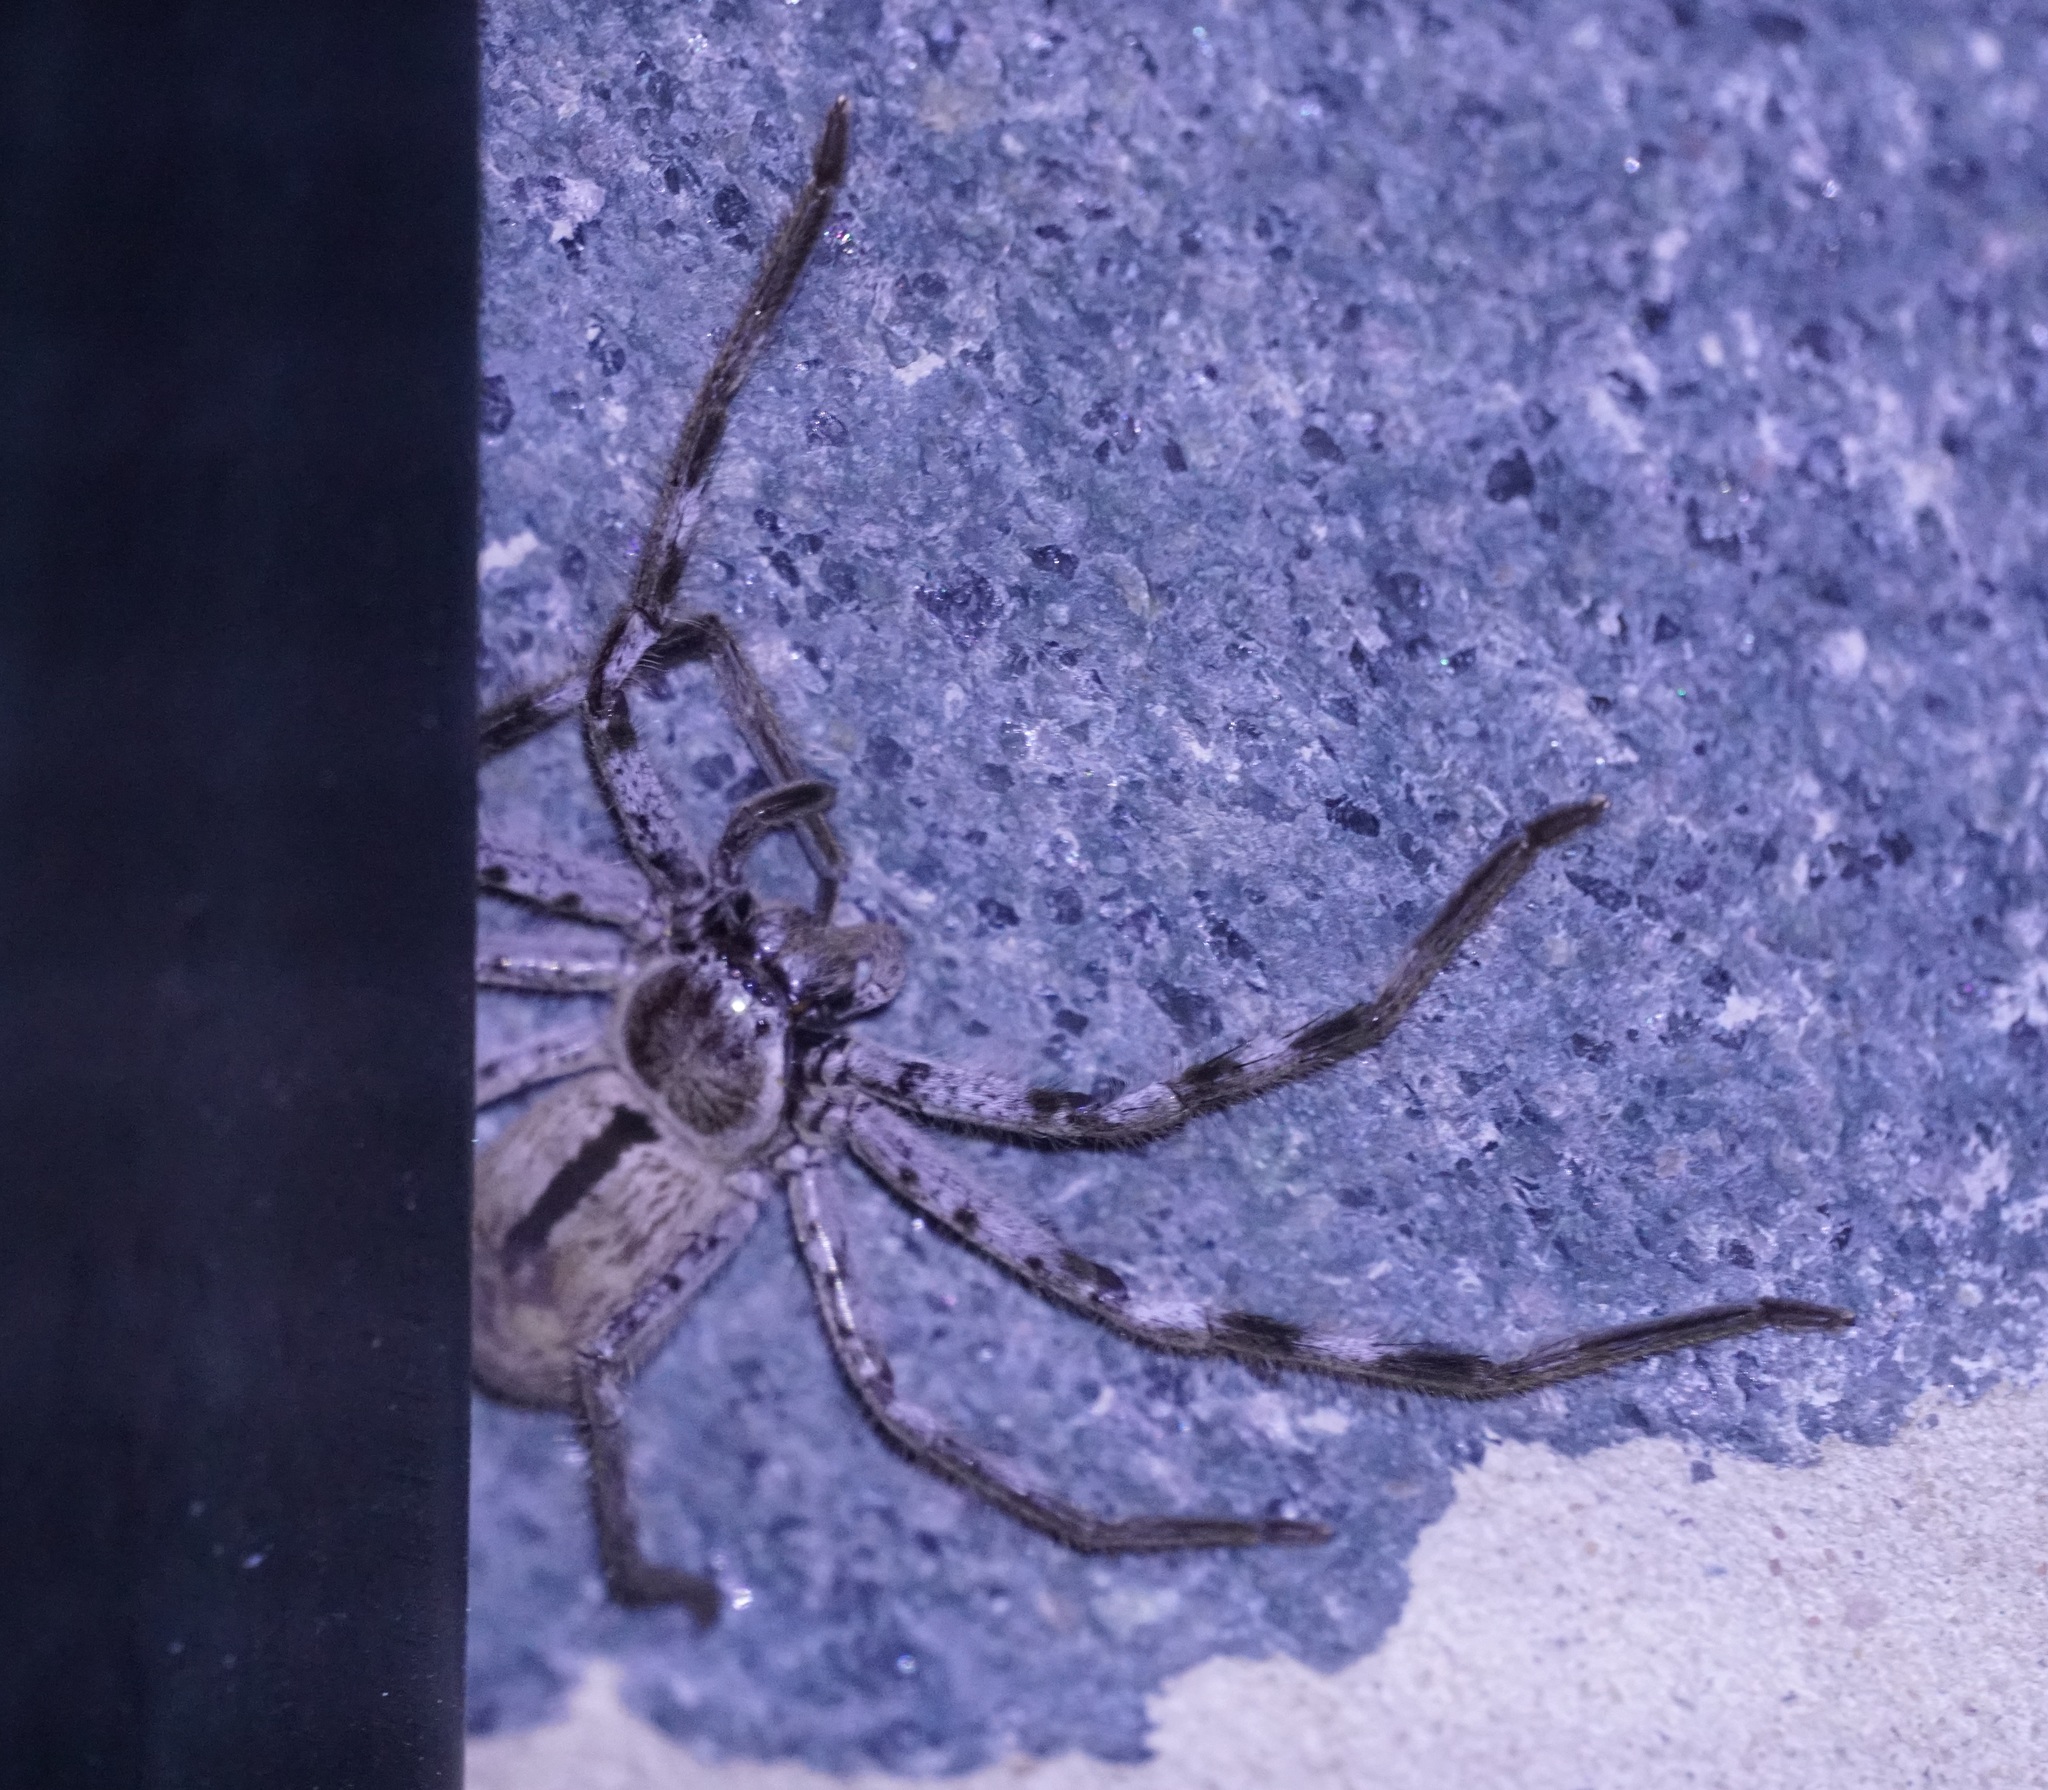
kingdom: Animalia
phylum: Arthropoda
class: Arachnida
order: Araneae
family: Sparassidae
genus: Holconia
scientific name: Holconia immanis
